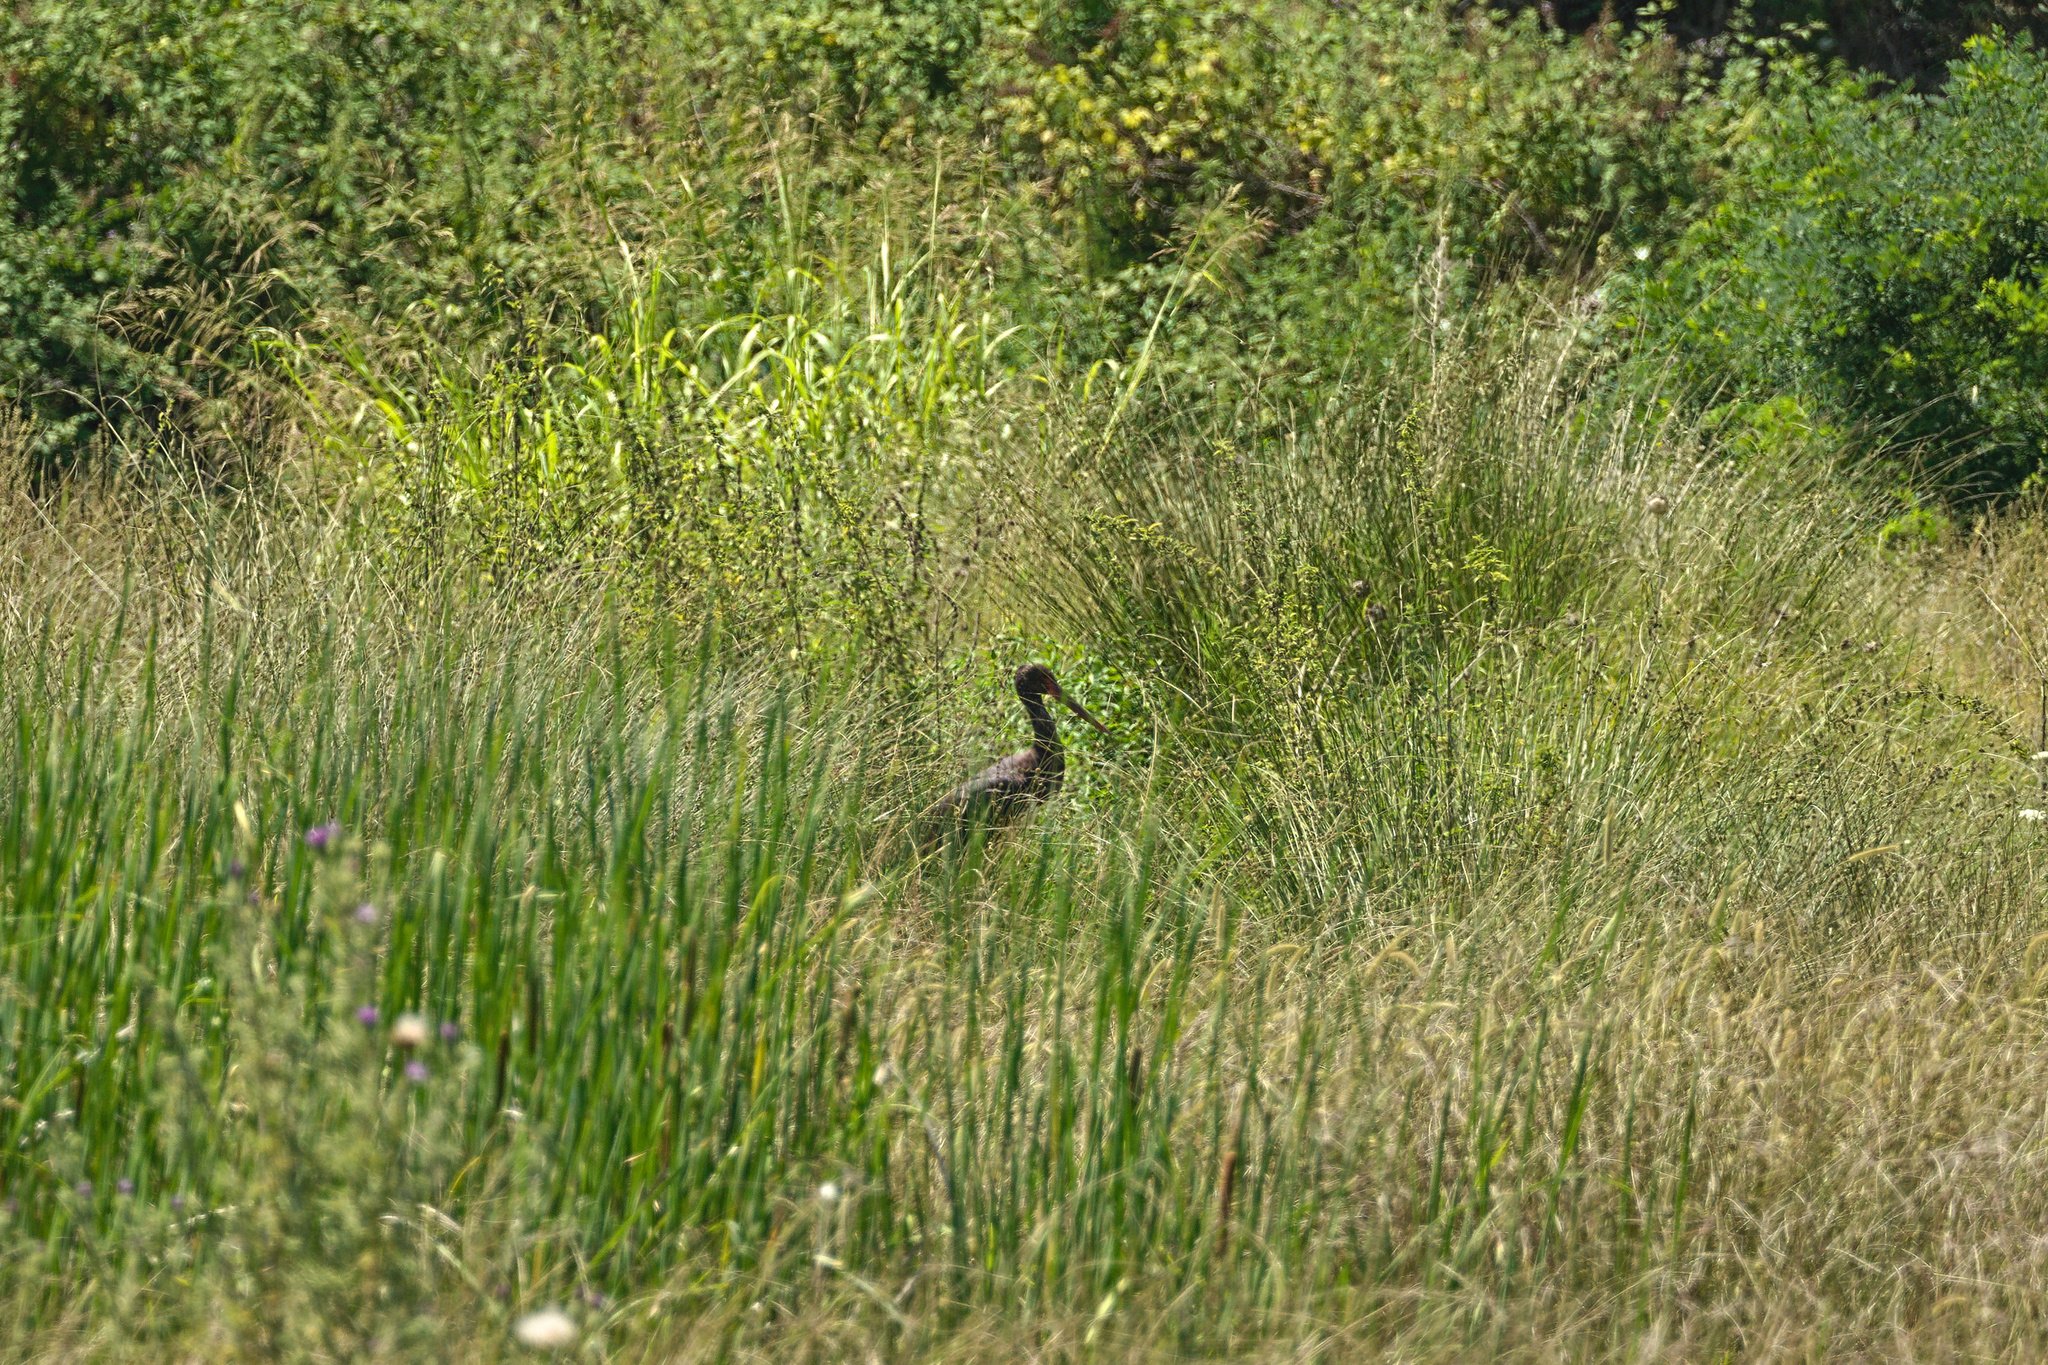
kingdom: Animalia
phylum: Chordata
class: Aves
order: Ciconiiformes
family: Ciconiidae
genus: Ciconia
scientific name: Ciconia nigra
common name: Black stork
